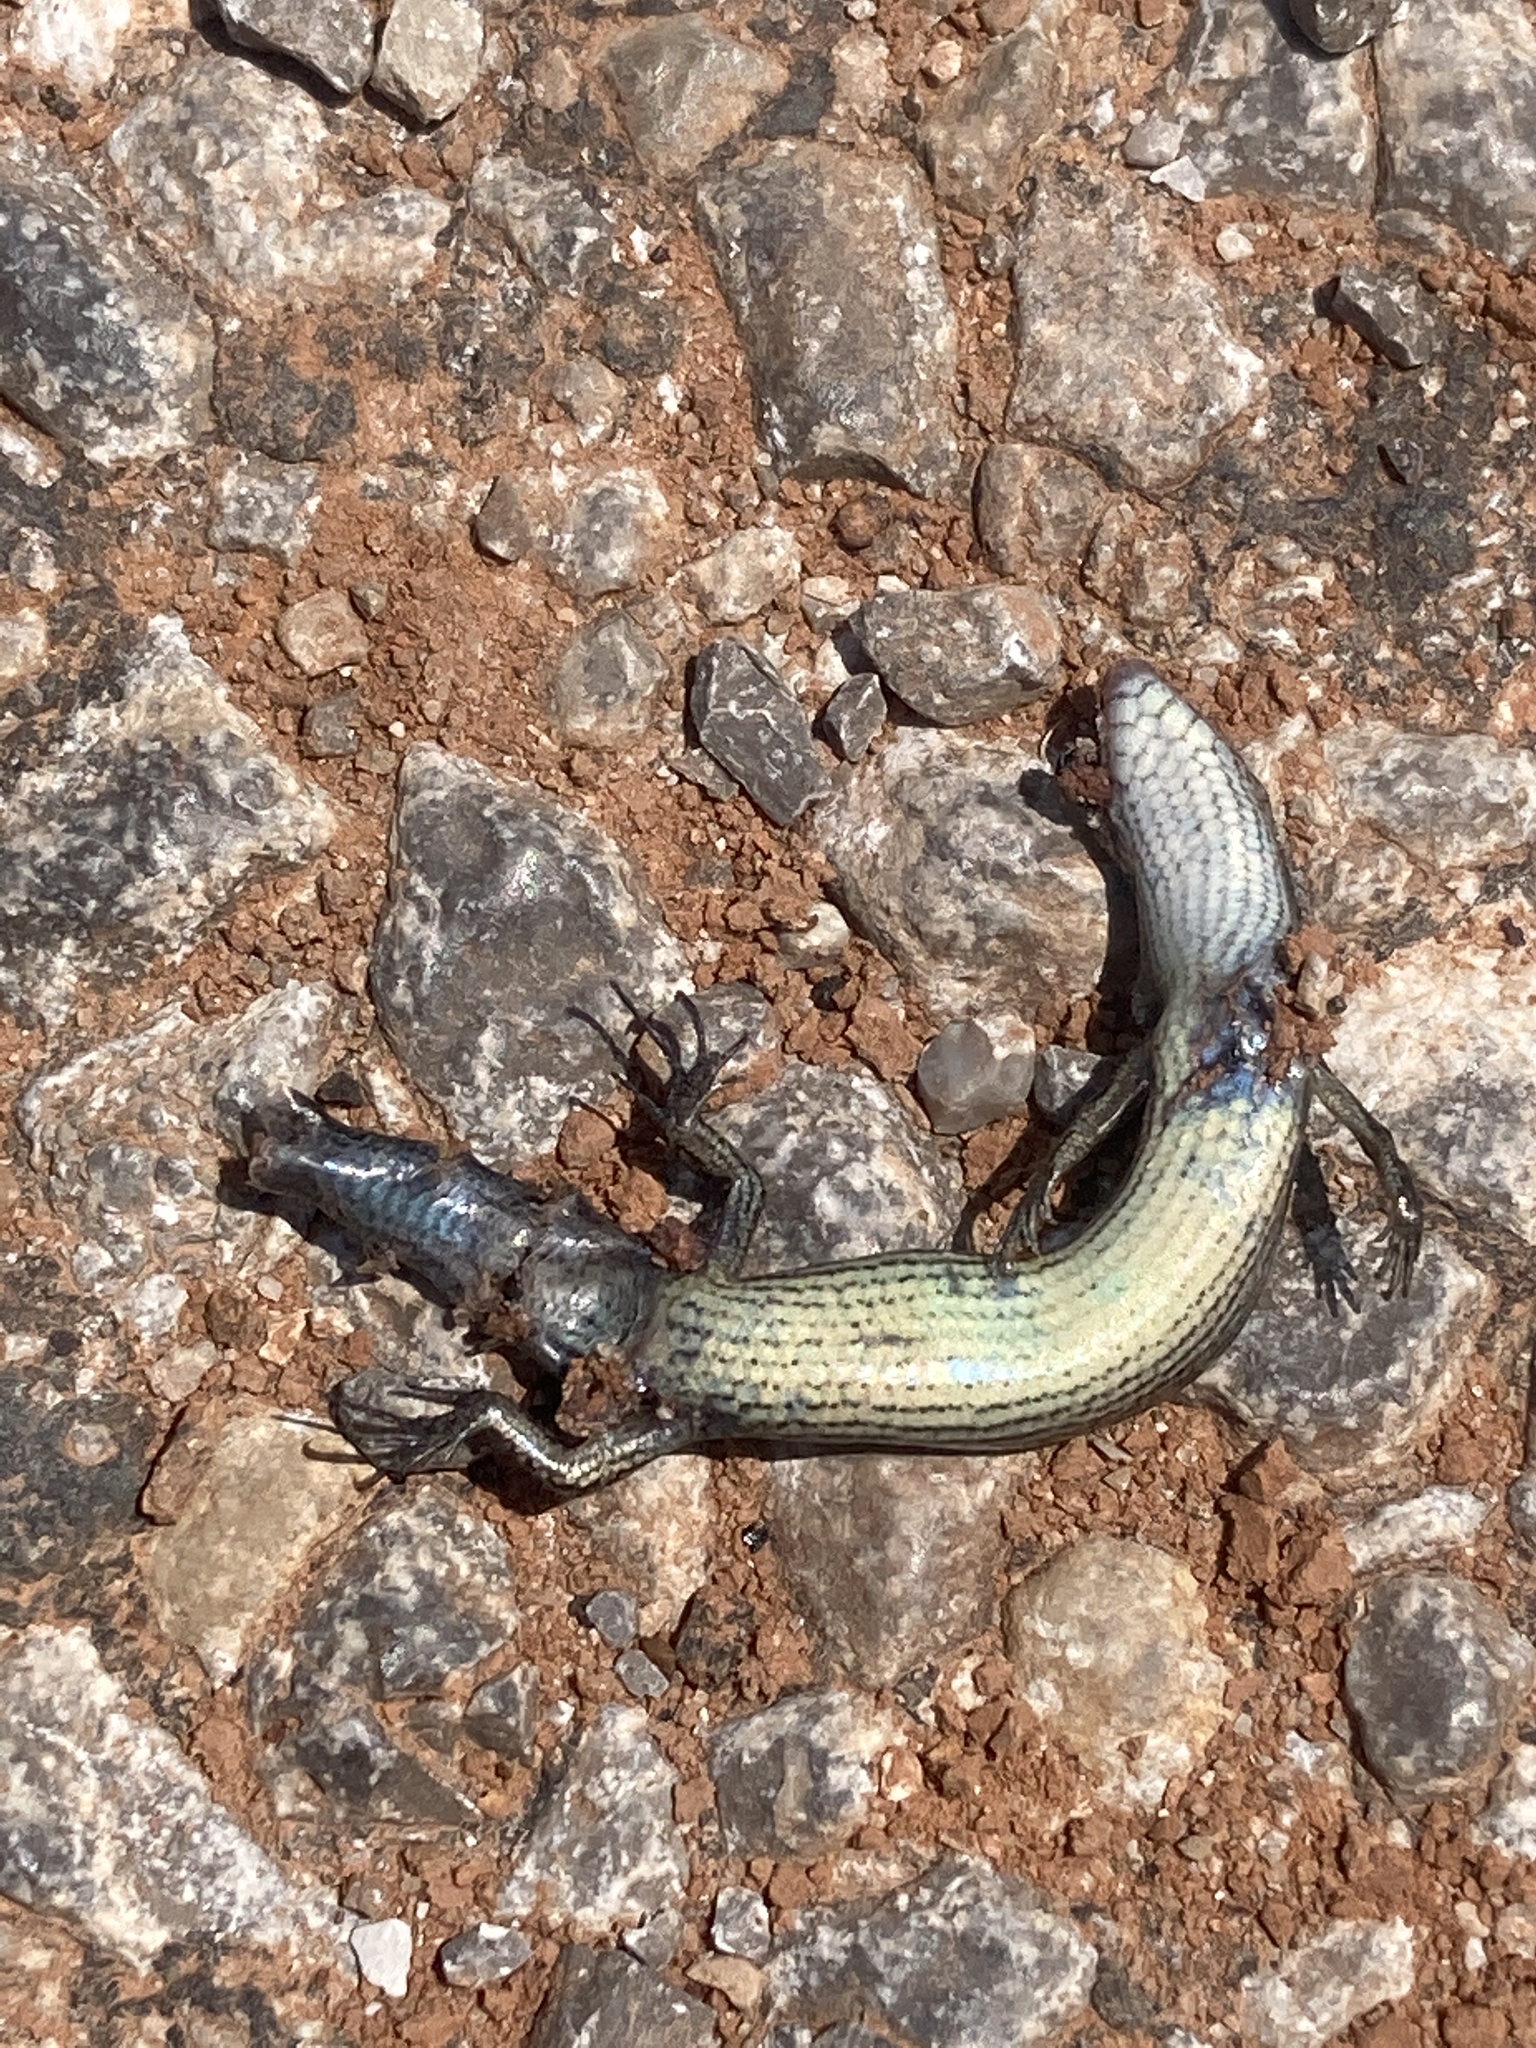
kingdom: Animalia
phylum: Chordata
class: Squamata
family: Scincidae
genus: Scincella
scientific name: Scincella lateralis
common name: Ground skink
